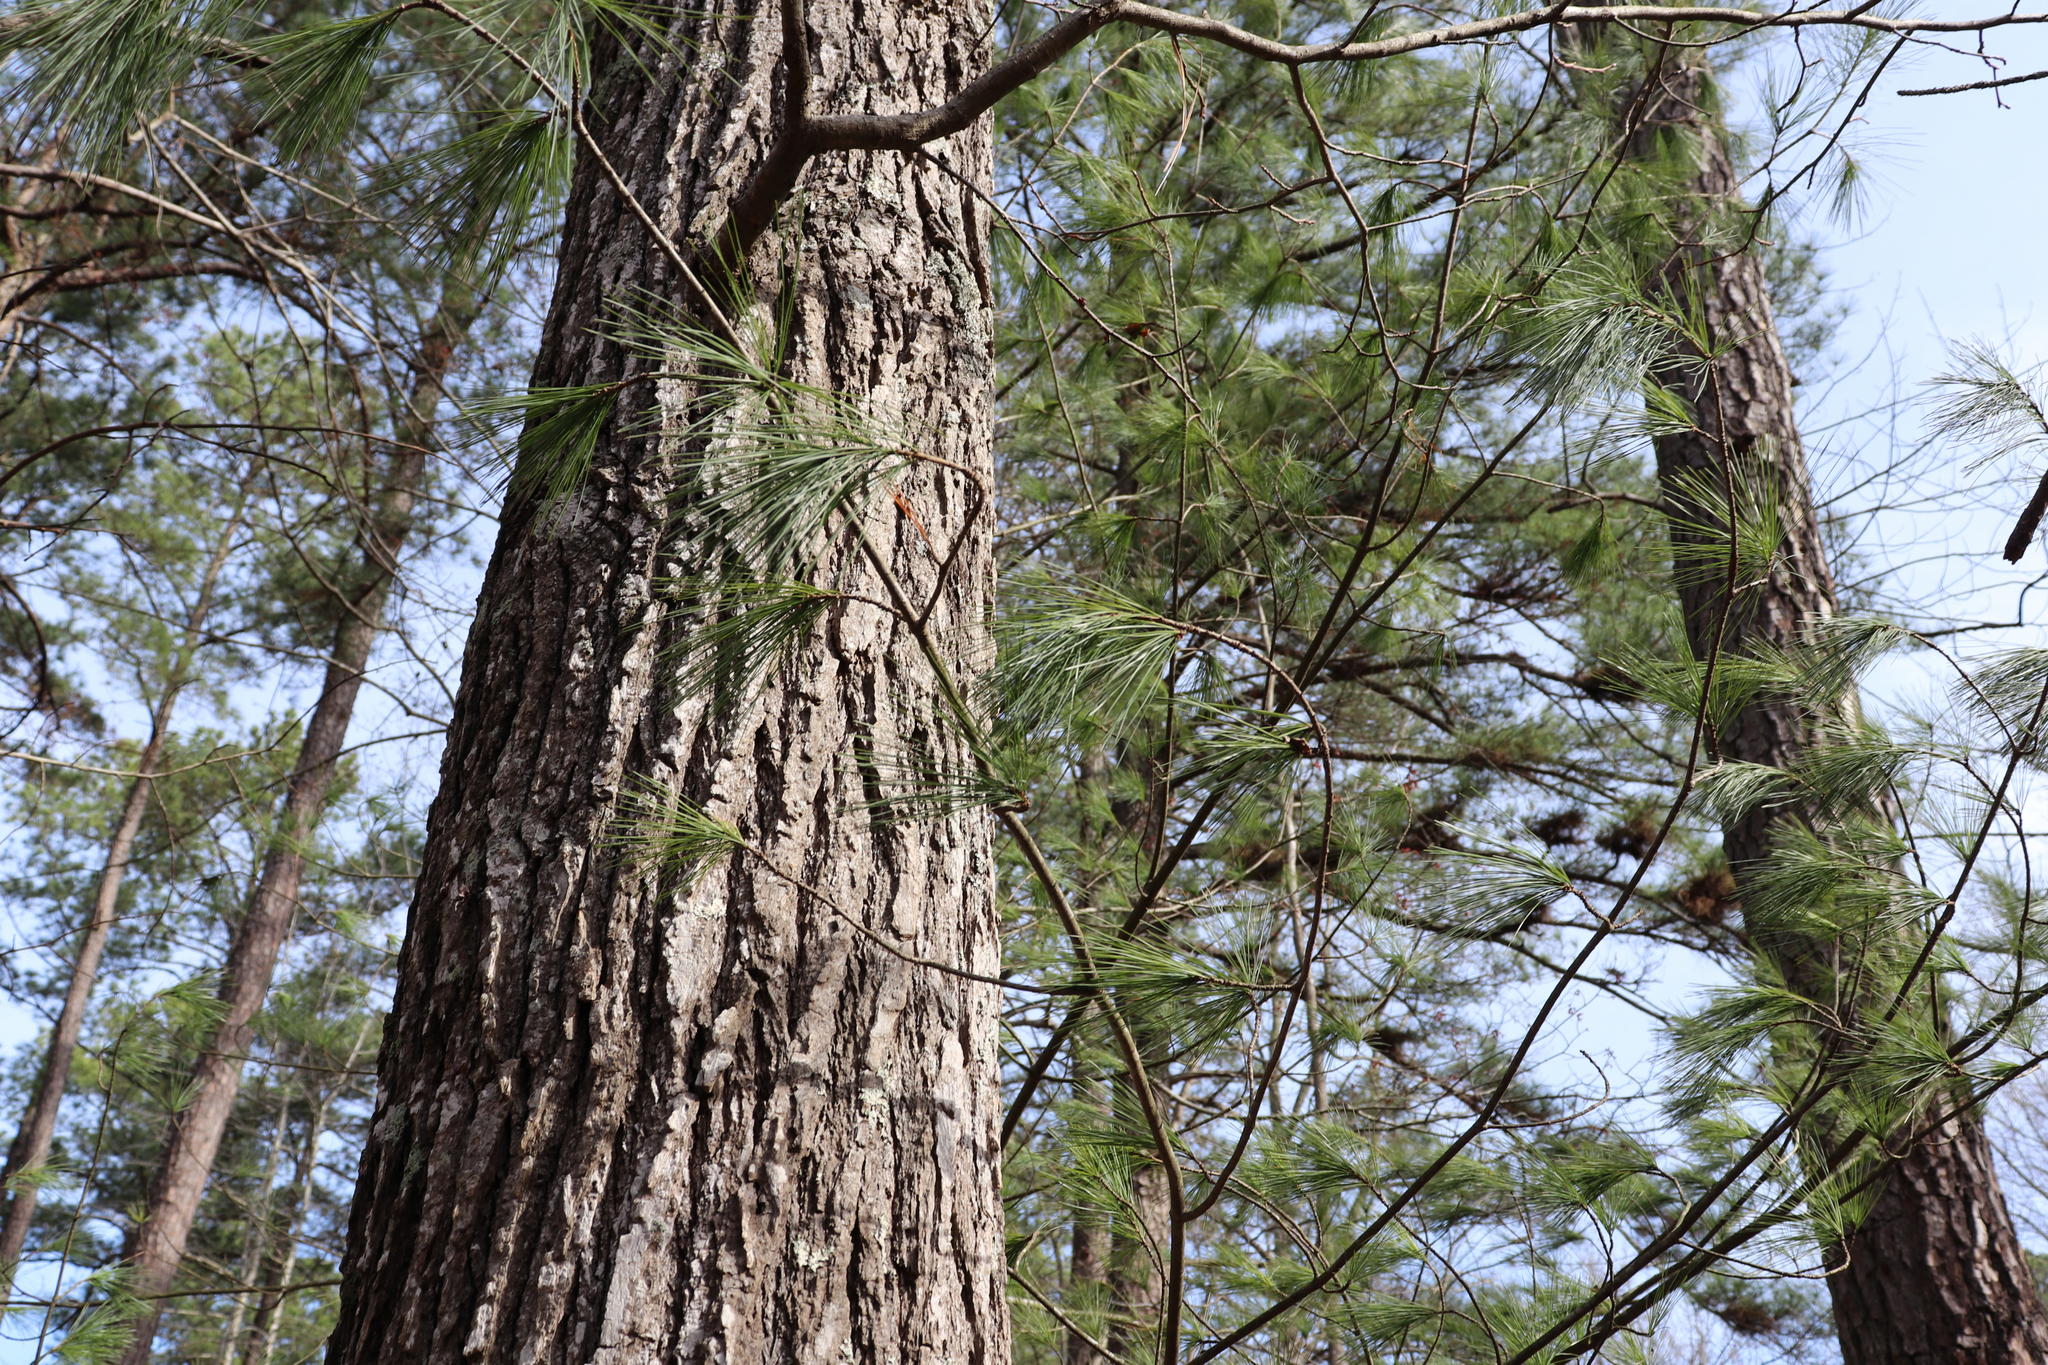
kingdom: Plantae
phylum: Tracheophyta
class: Pinopsida
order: Pinales
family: Pinaceae
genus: Pinus
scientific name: Pinus strobus
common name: Weymouth pine
